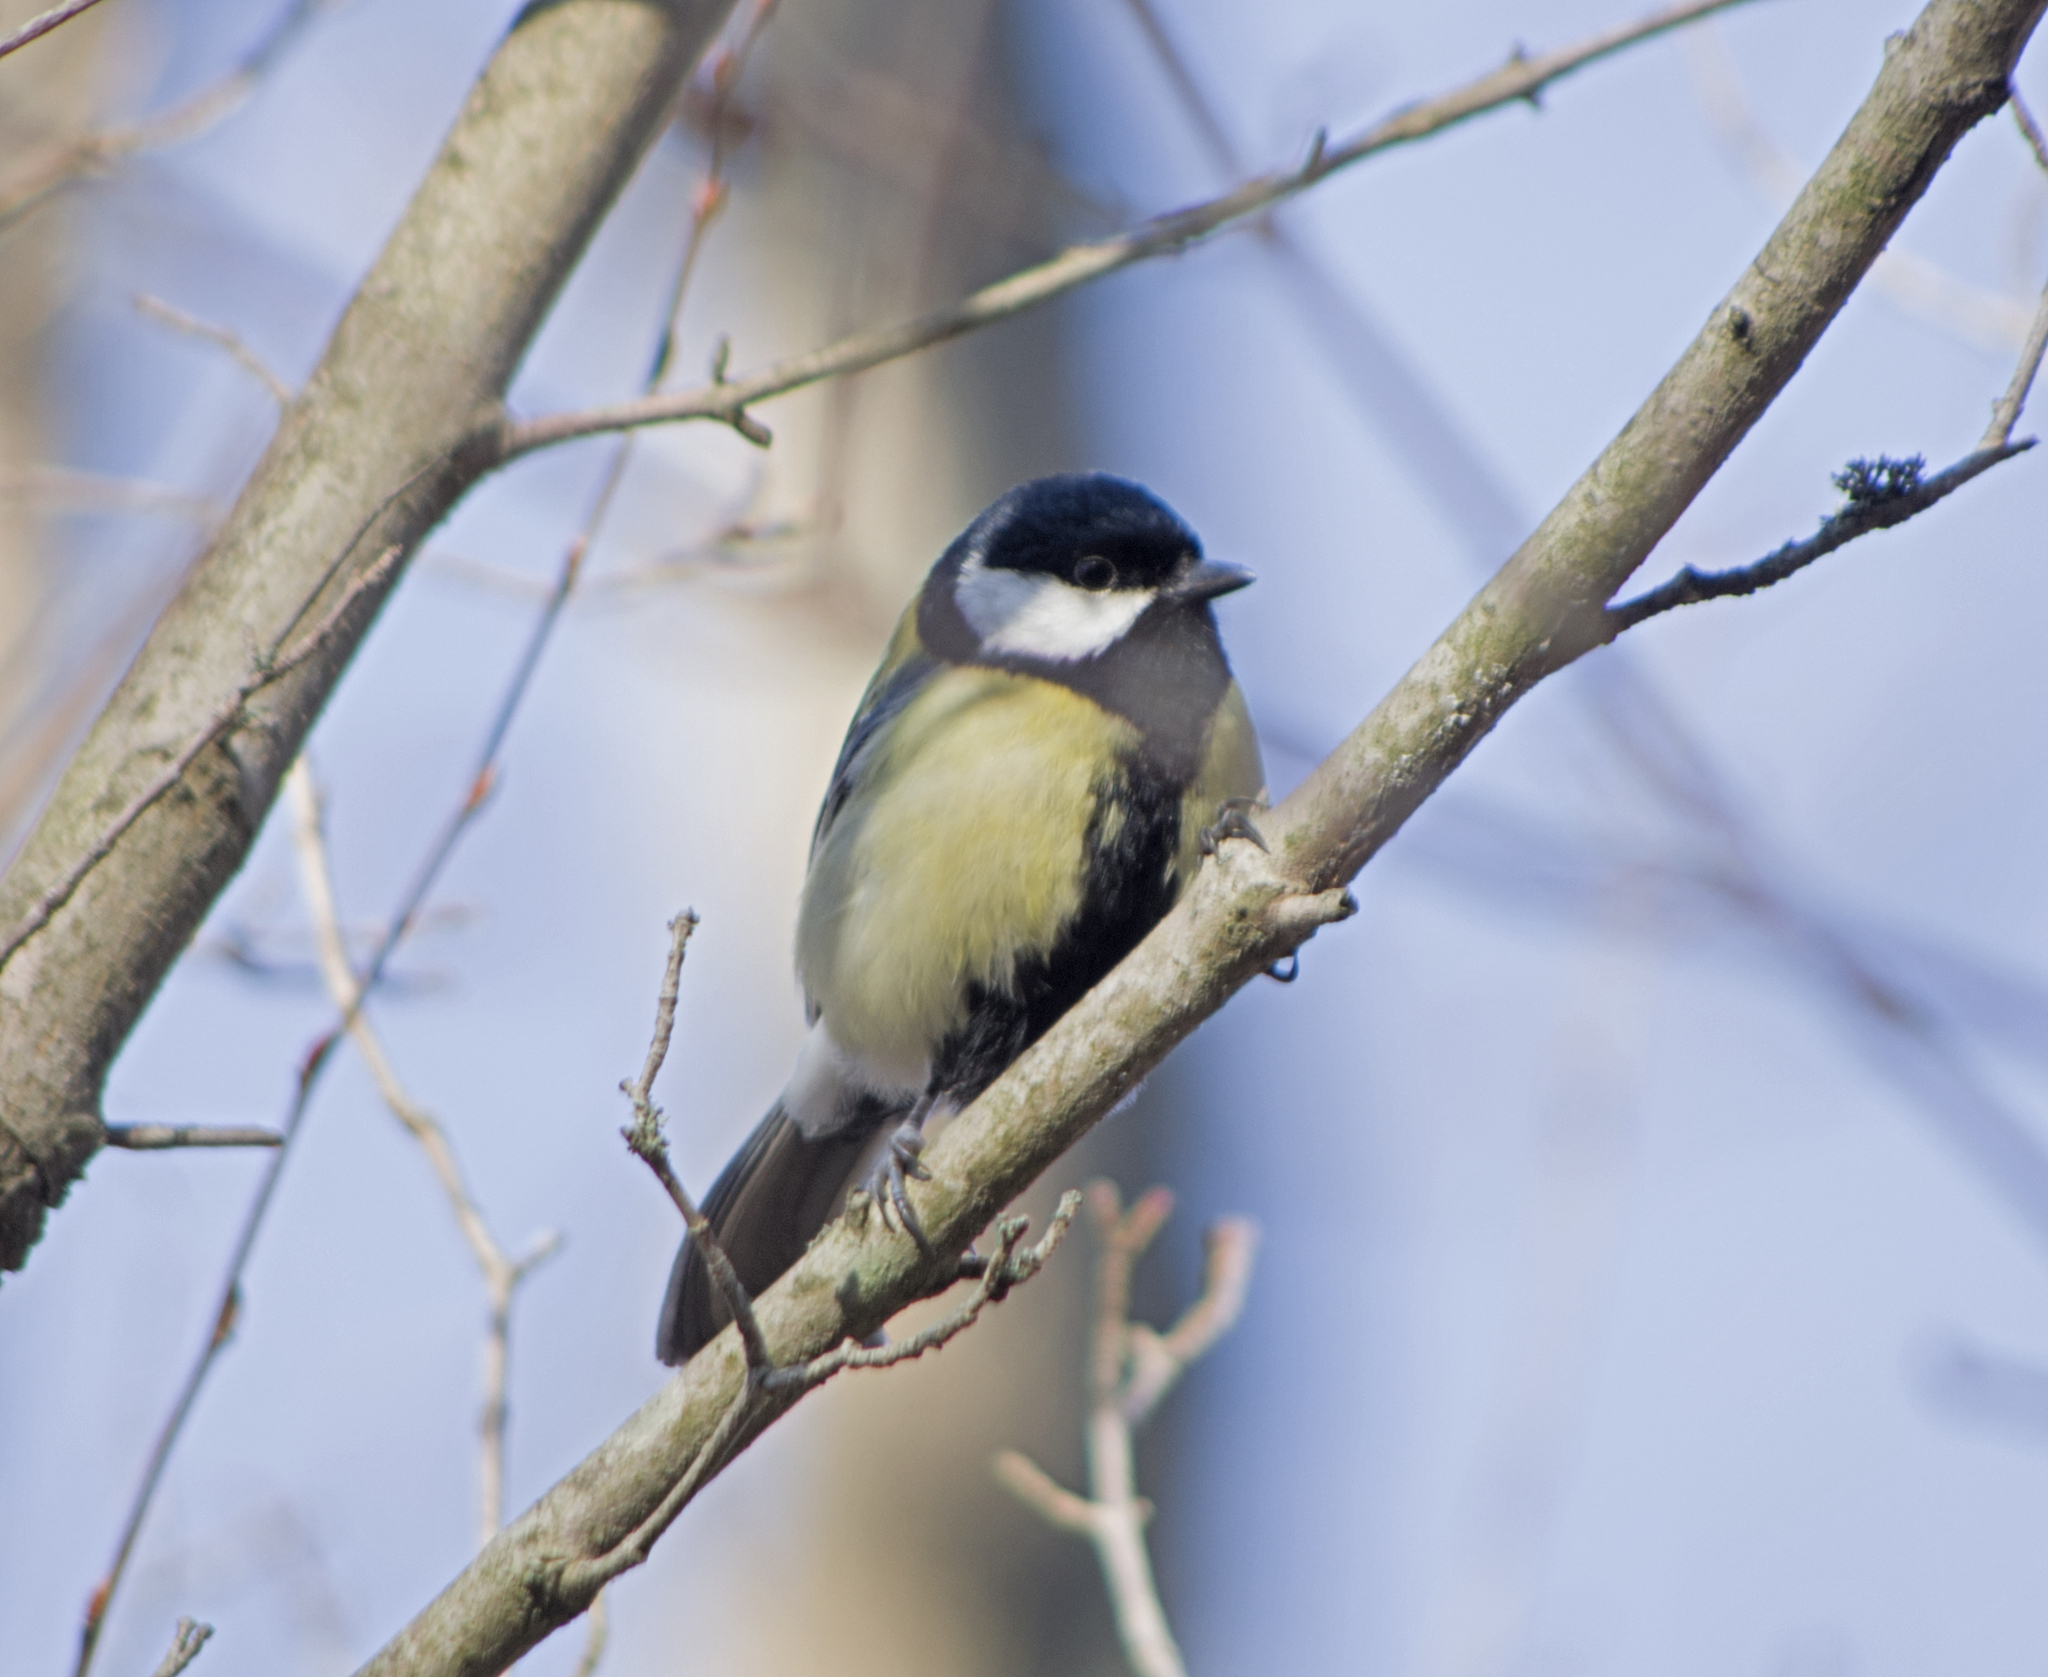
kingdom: Animalia
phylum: Chordata
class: Aves
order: Passeriformes
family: Paridae
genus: Parus
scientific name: Parus major
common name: Great tit
